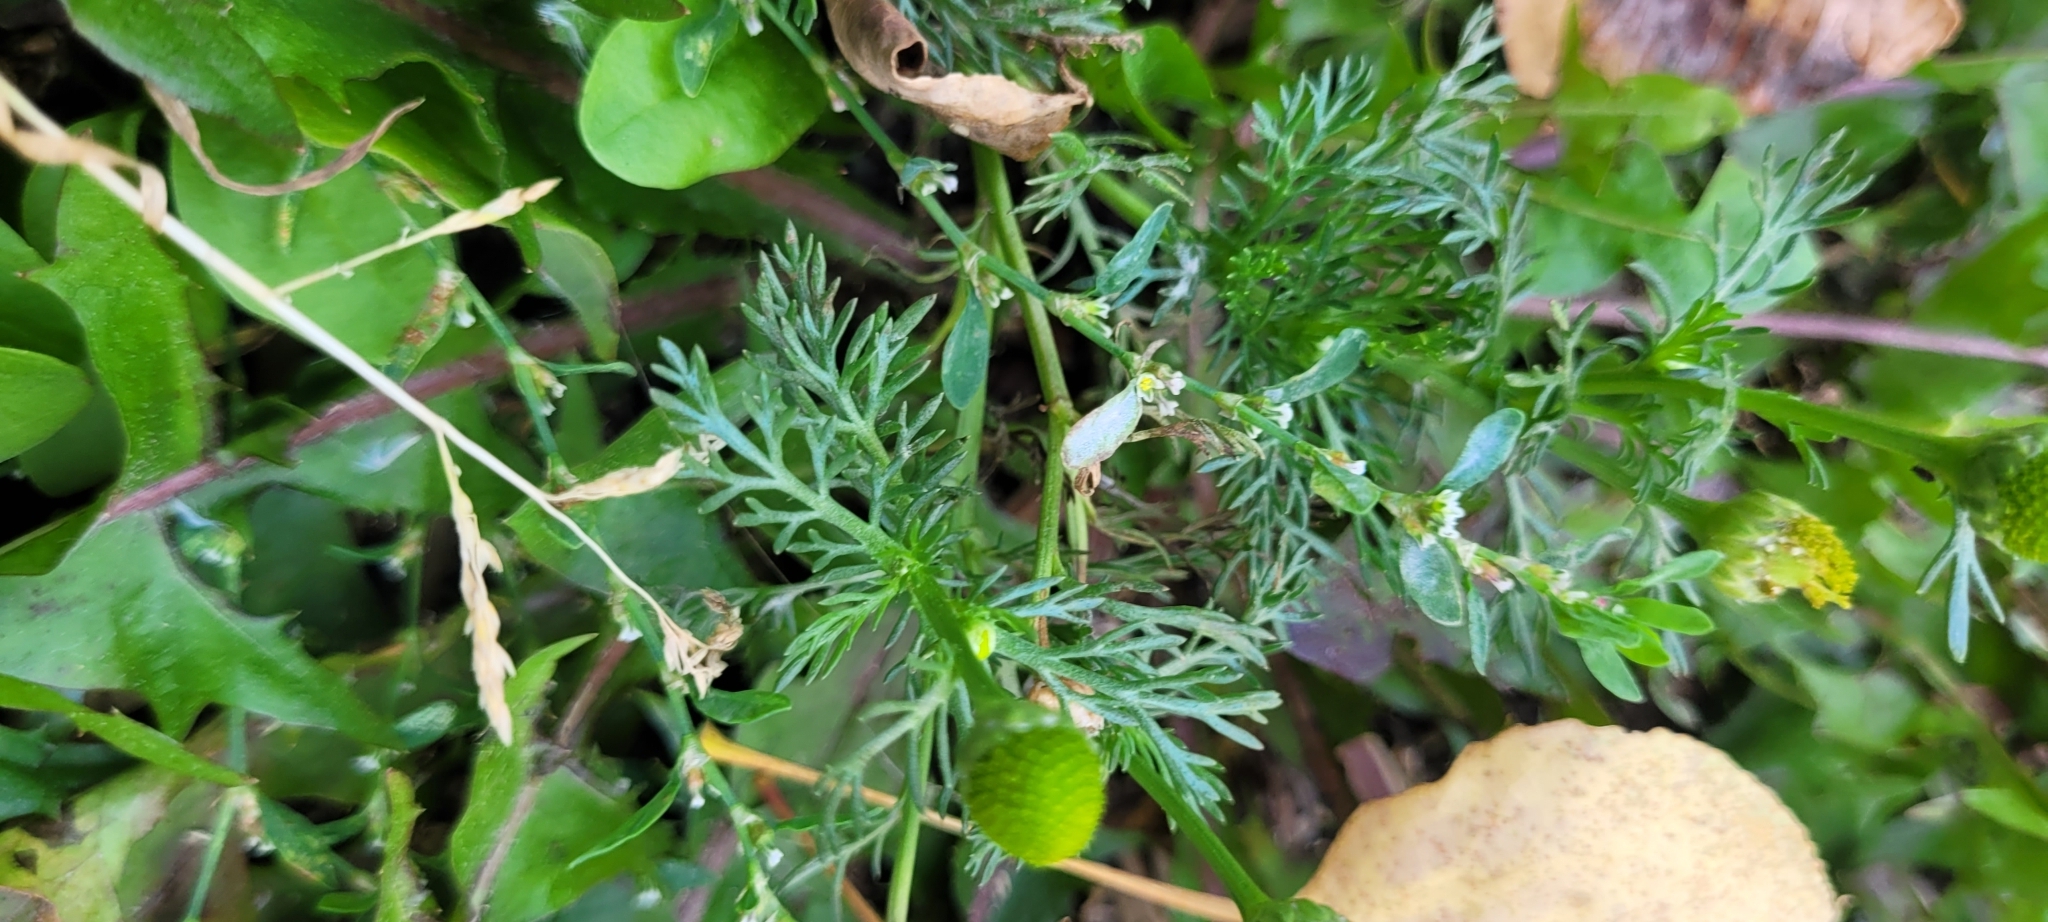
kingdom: Plantae
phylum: Tracheophyta
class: Magnoliopsida
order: Asterales
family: Asteraceae
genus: Matricaria
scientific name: Matricaria discoidea
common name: Disc mayweed
